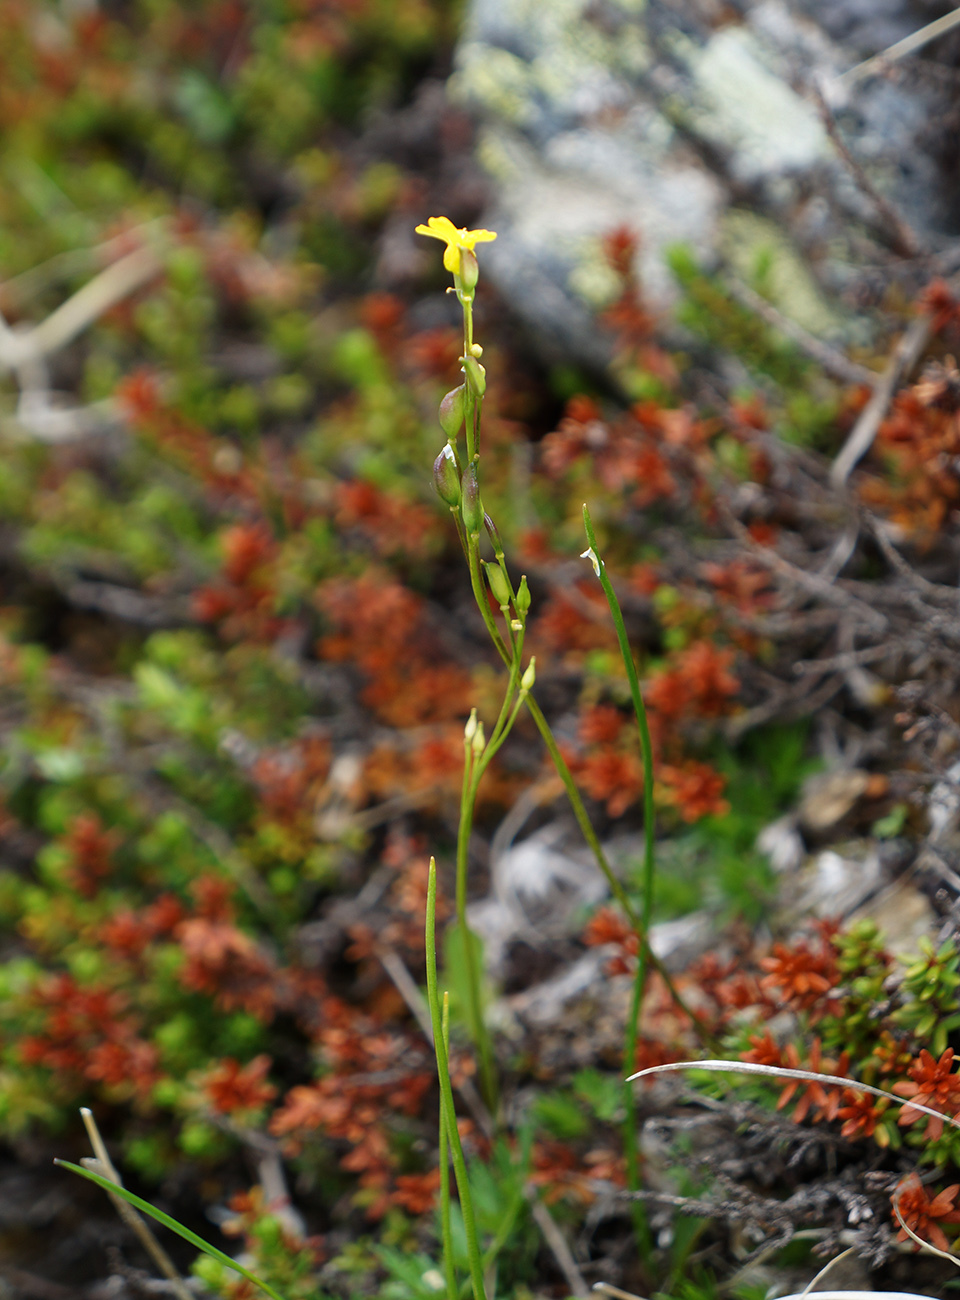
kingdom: Plantae
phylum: Tracheophyta
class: Magnoliopsida
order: Brassicales
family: Brassicaceae
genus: Draba
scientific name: Draba scabra
